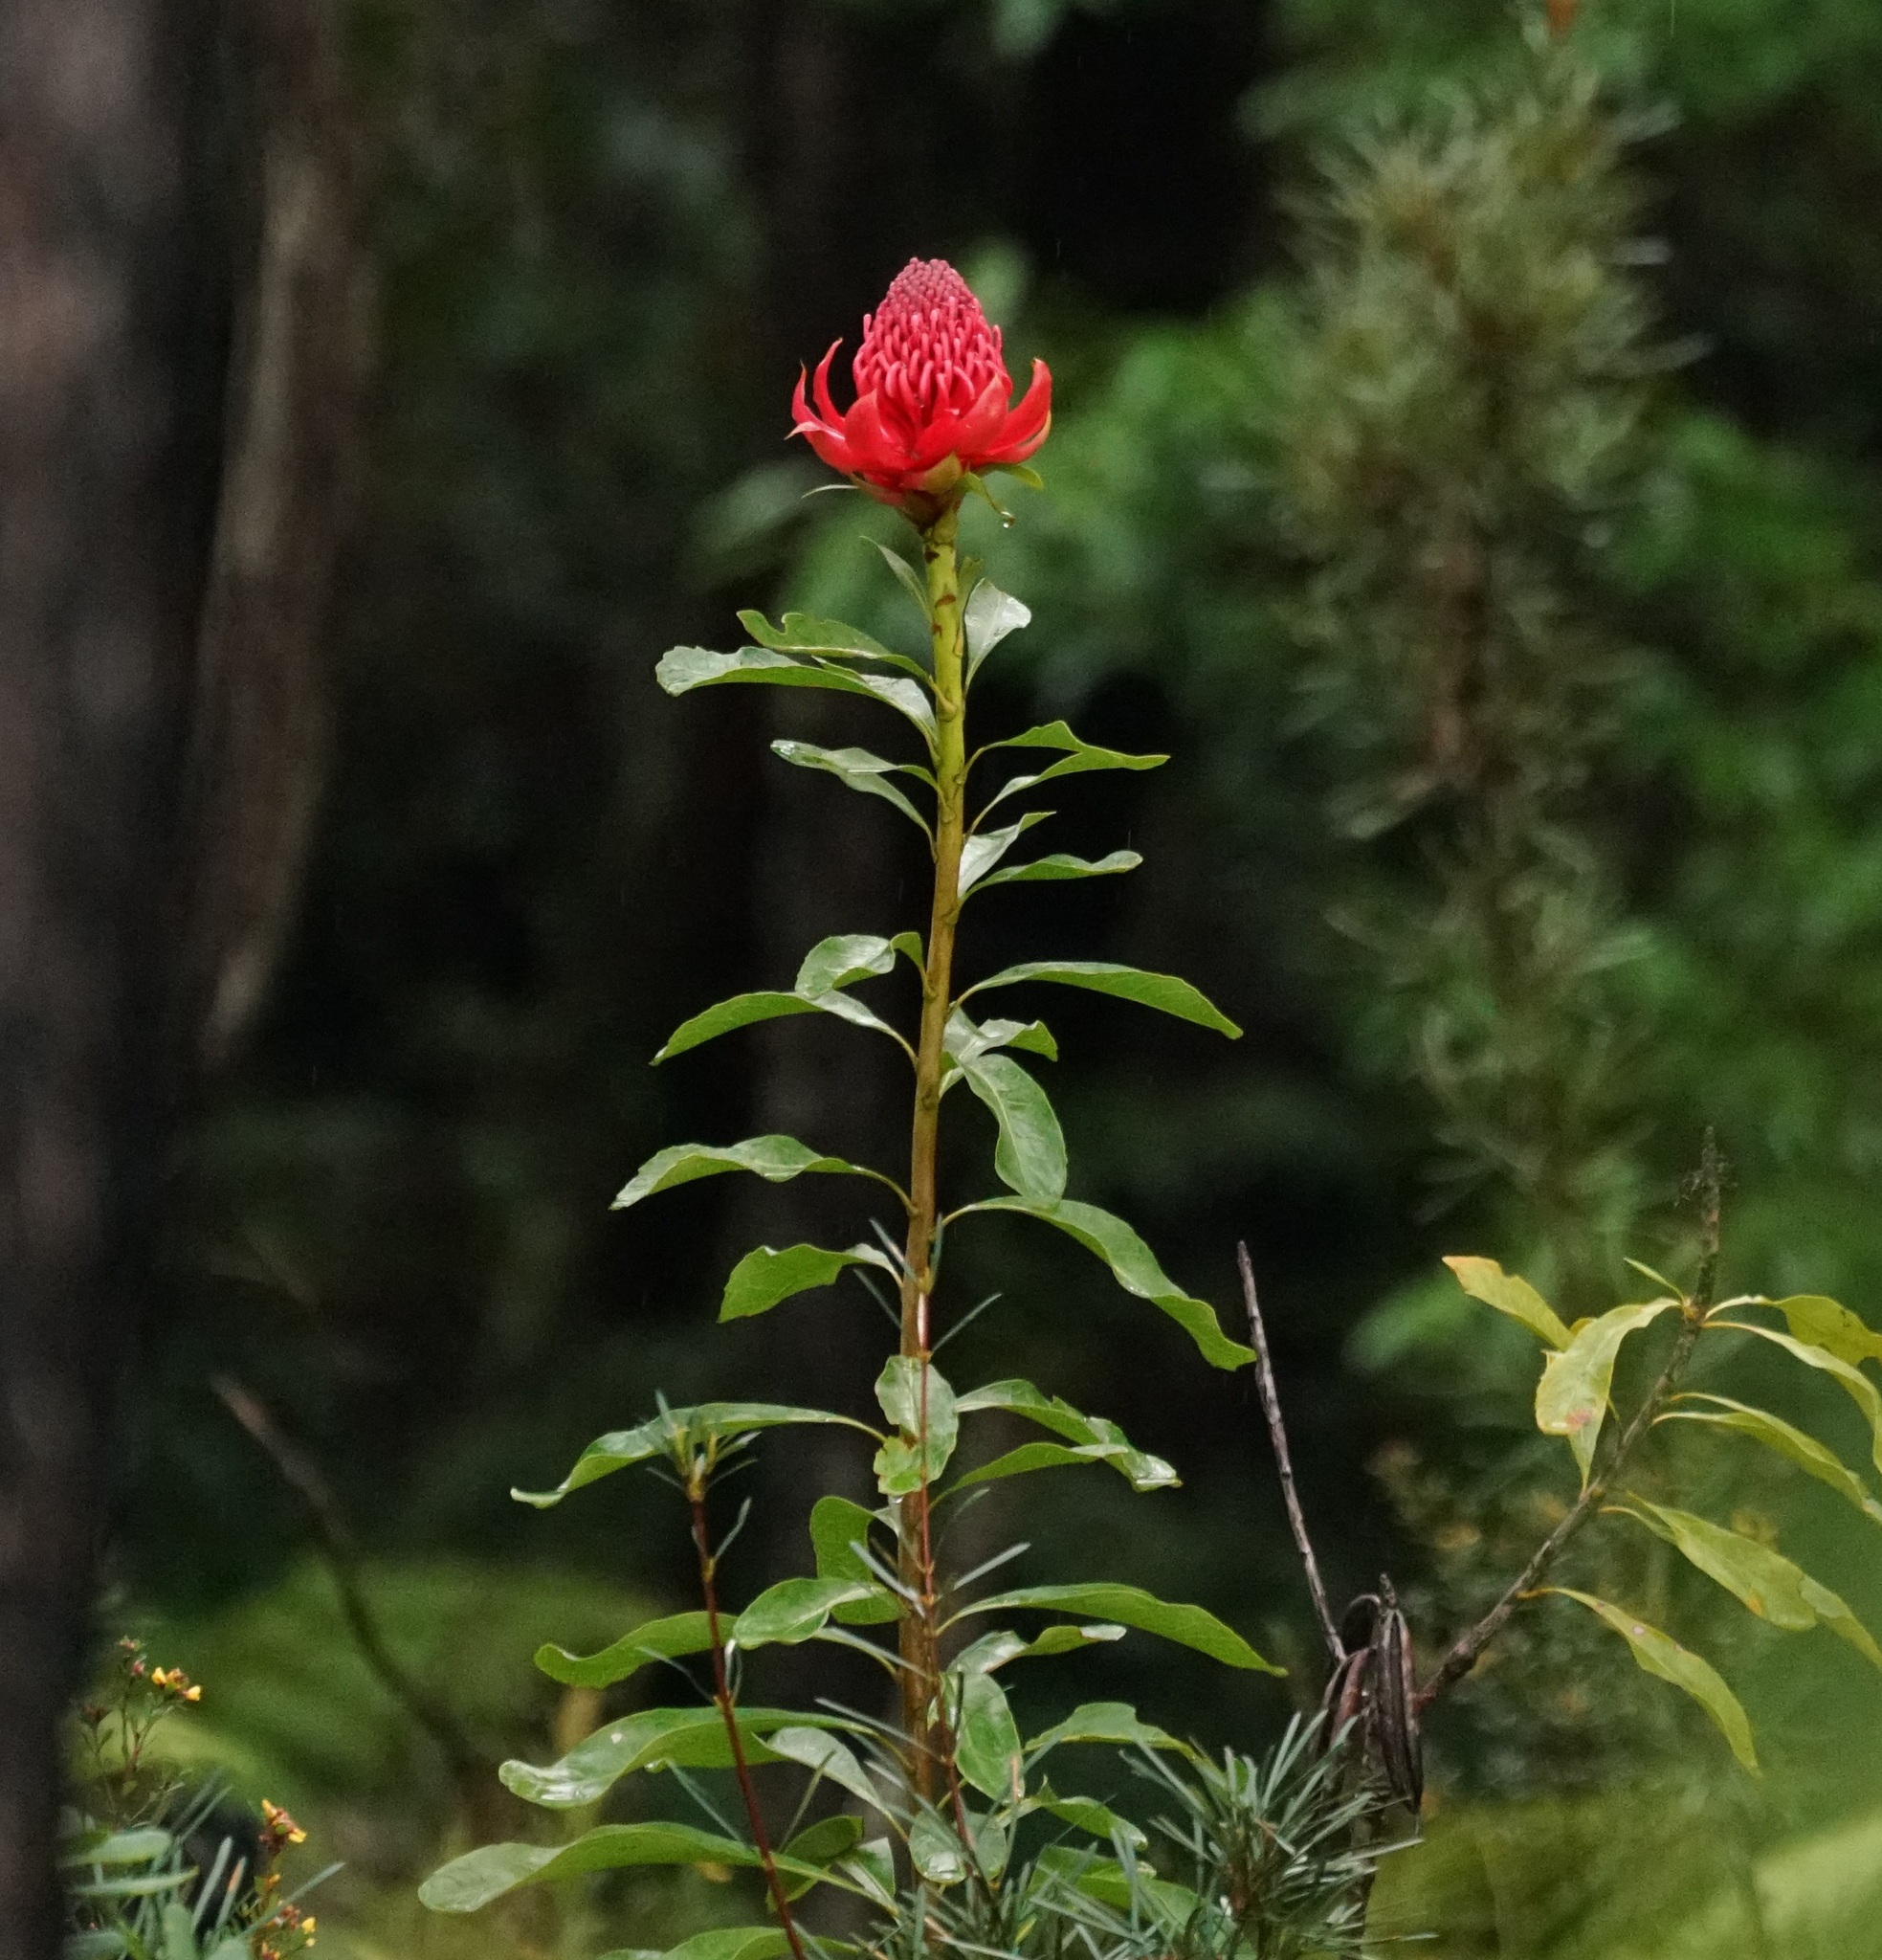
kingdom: Plantae
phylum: Tracheophyta
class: Magnoliopsida
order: Proteales
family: Proteaceae
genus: Telopea
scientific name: Telopea speciosissima
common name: New south wales waratah
